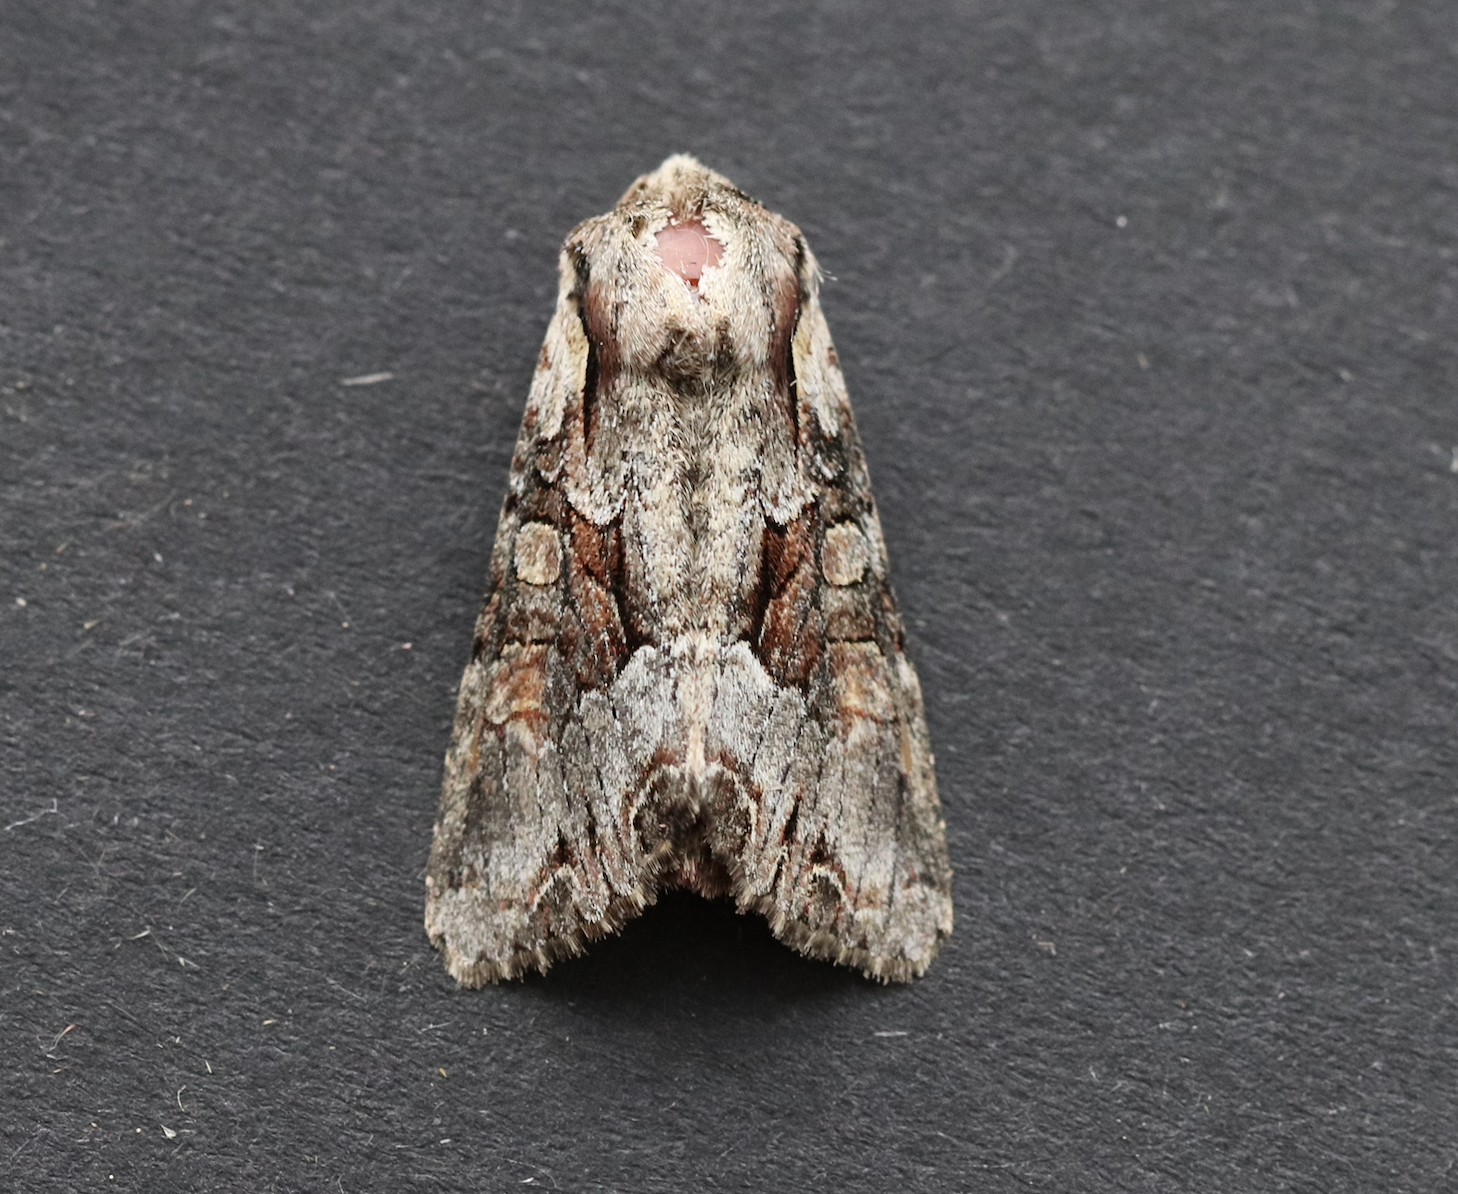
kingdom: Animalia
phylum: Arthropoda
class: Insecta
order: Lepidoptera
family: Noctuidae
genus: Lacanobia
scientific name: Lacanobia w-latinum
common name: Light brocade
